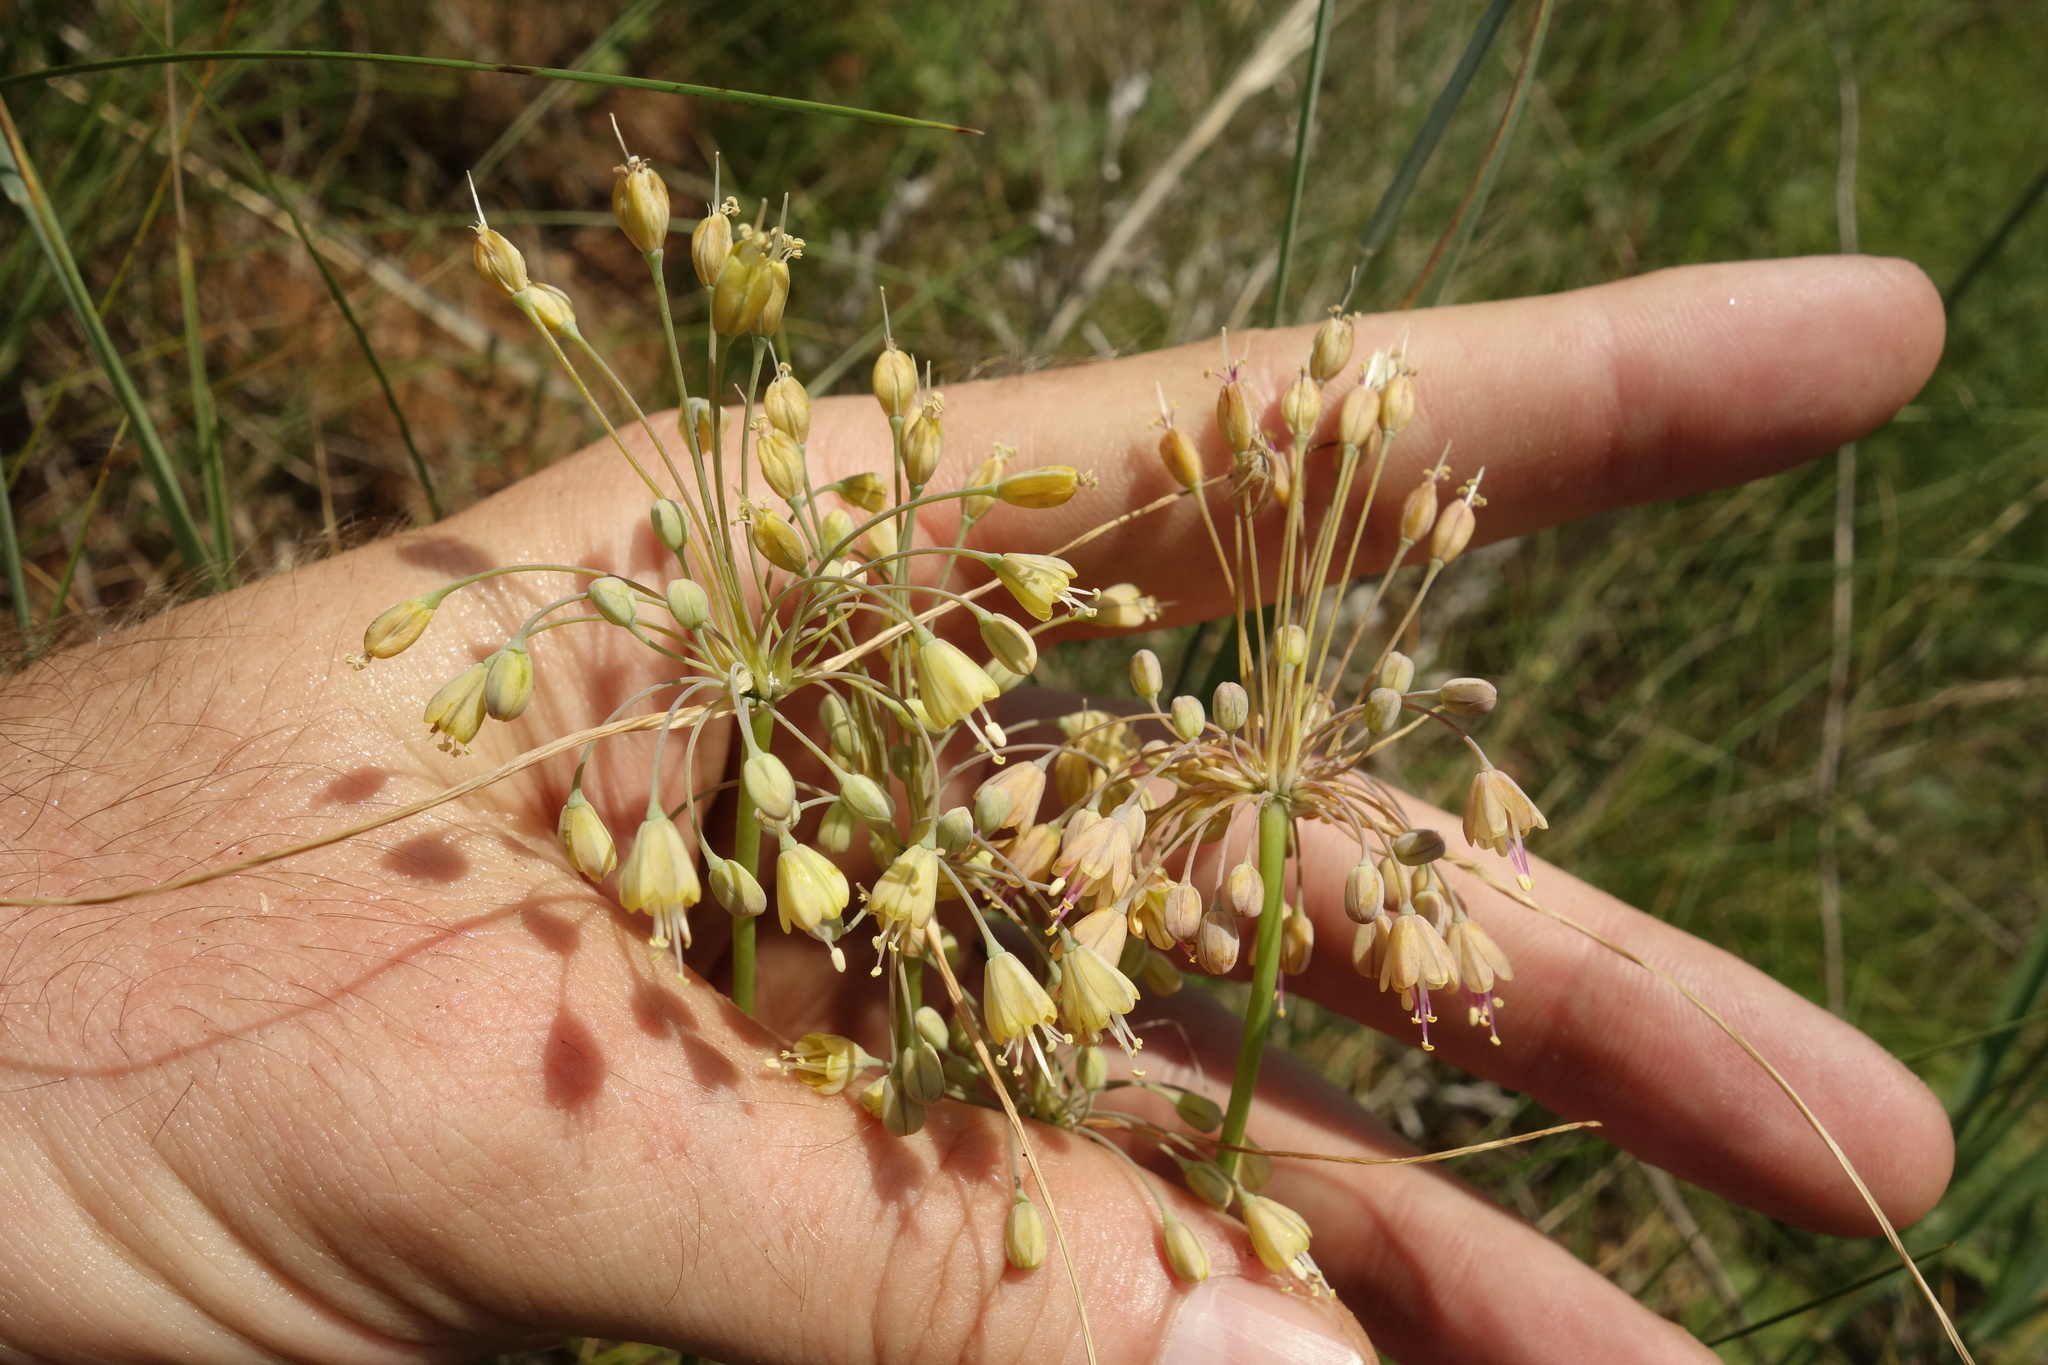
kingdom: Plantae
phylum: Tracheophyta
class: Liliopsida
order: Asparagales
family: Amaryllidaceae
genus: Allium
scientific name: Allium flavum
